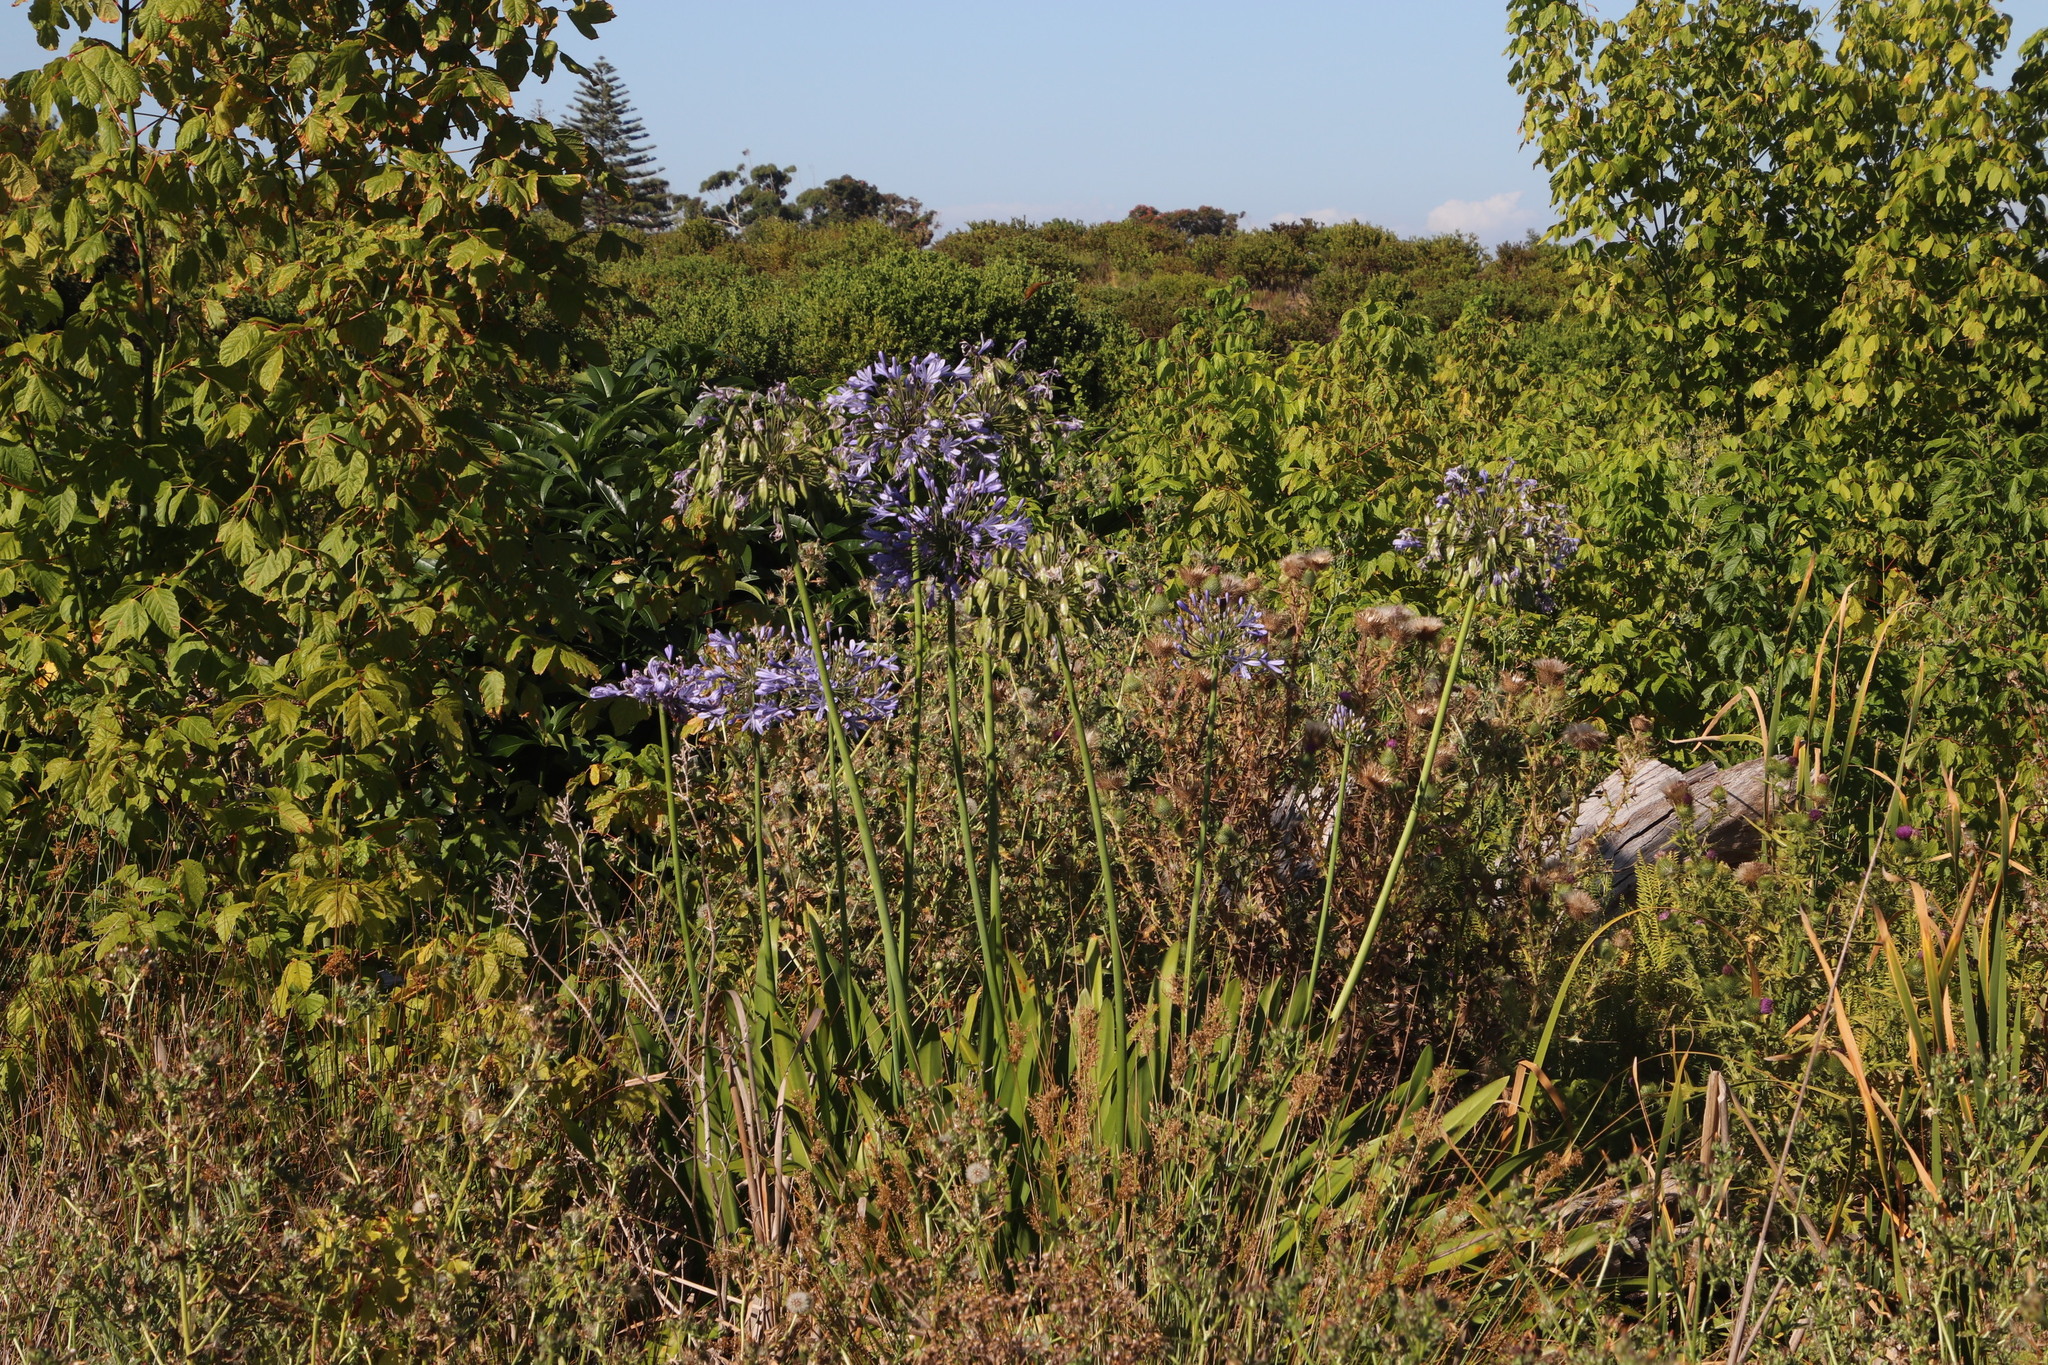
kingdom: Plantae
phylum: Tracheophyta
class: Liliopsida
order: Asparagales
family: Amaryllidaceae
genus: Agapanthus
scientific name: Agapanthus praecox
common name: African-lily
